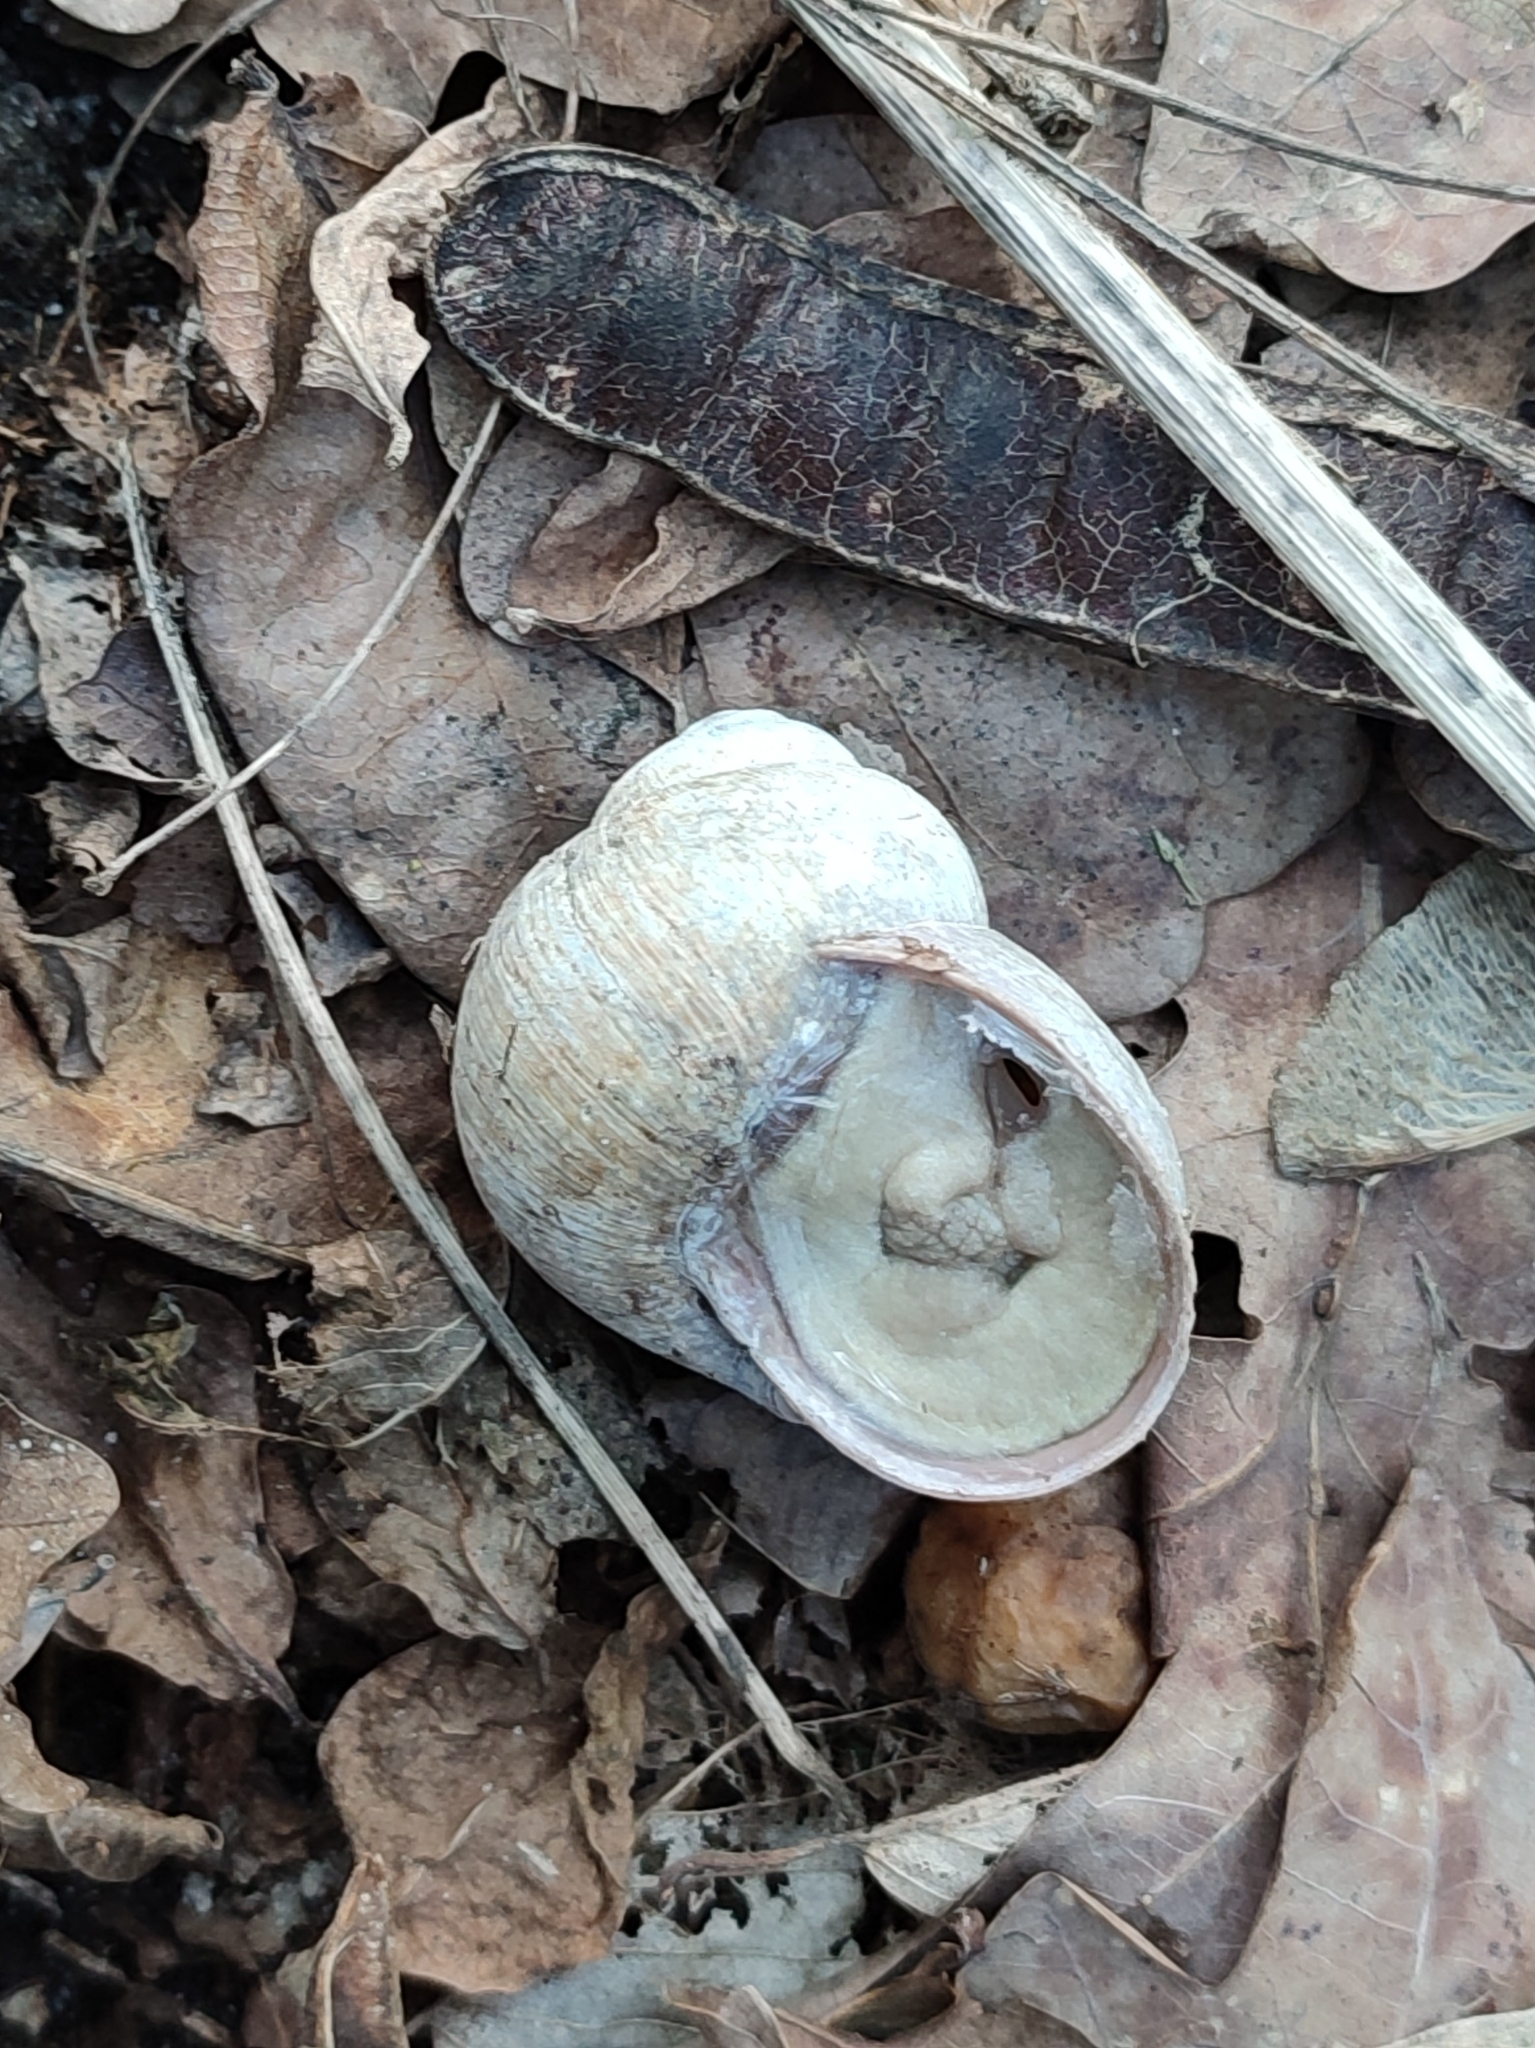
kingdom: Animalia
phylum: Mollusca
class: Gastropoda
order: Stylommatophora
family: Helicidae
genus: Helix
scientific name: Helix pomatia
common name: Roman snail
